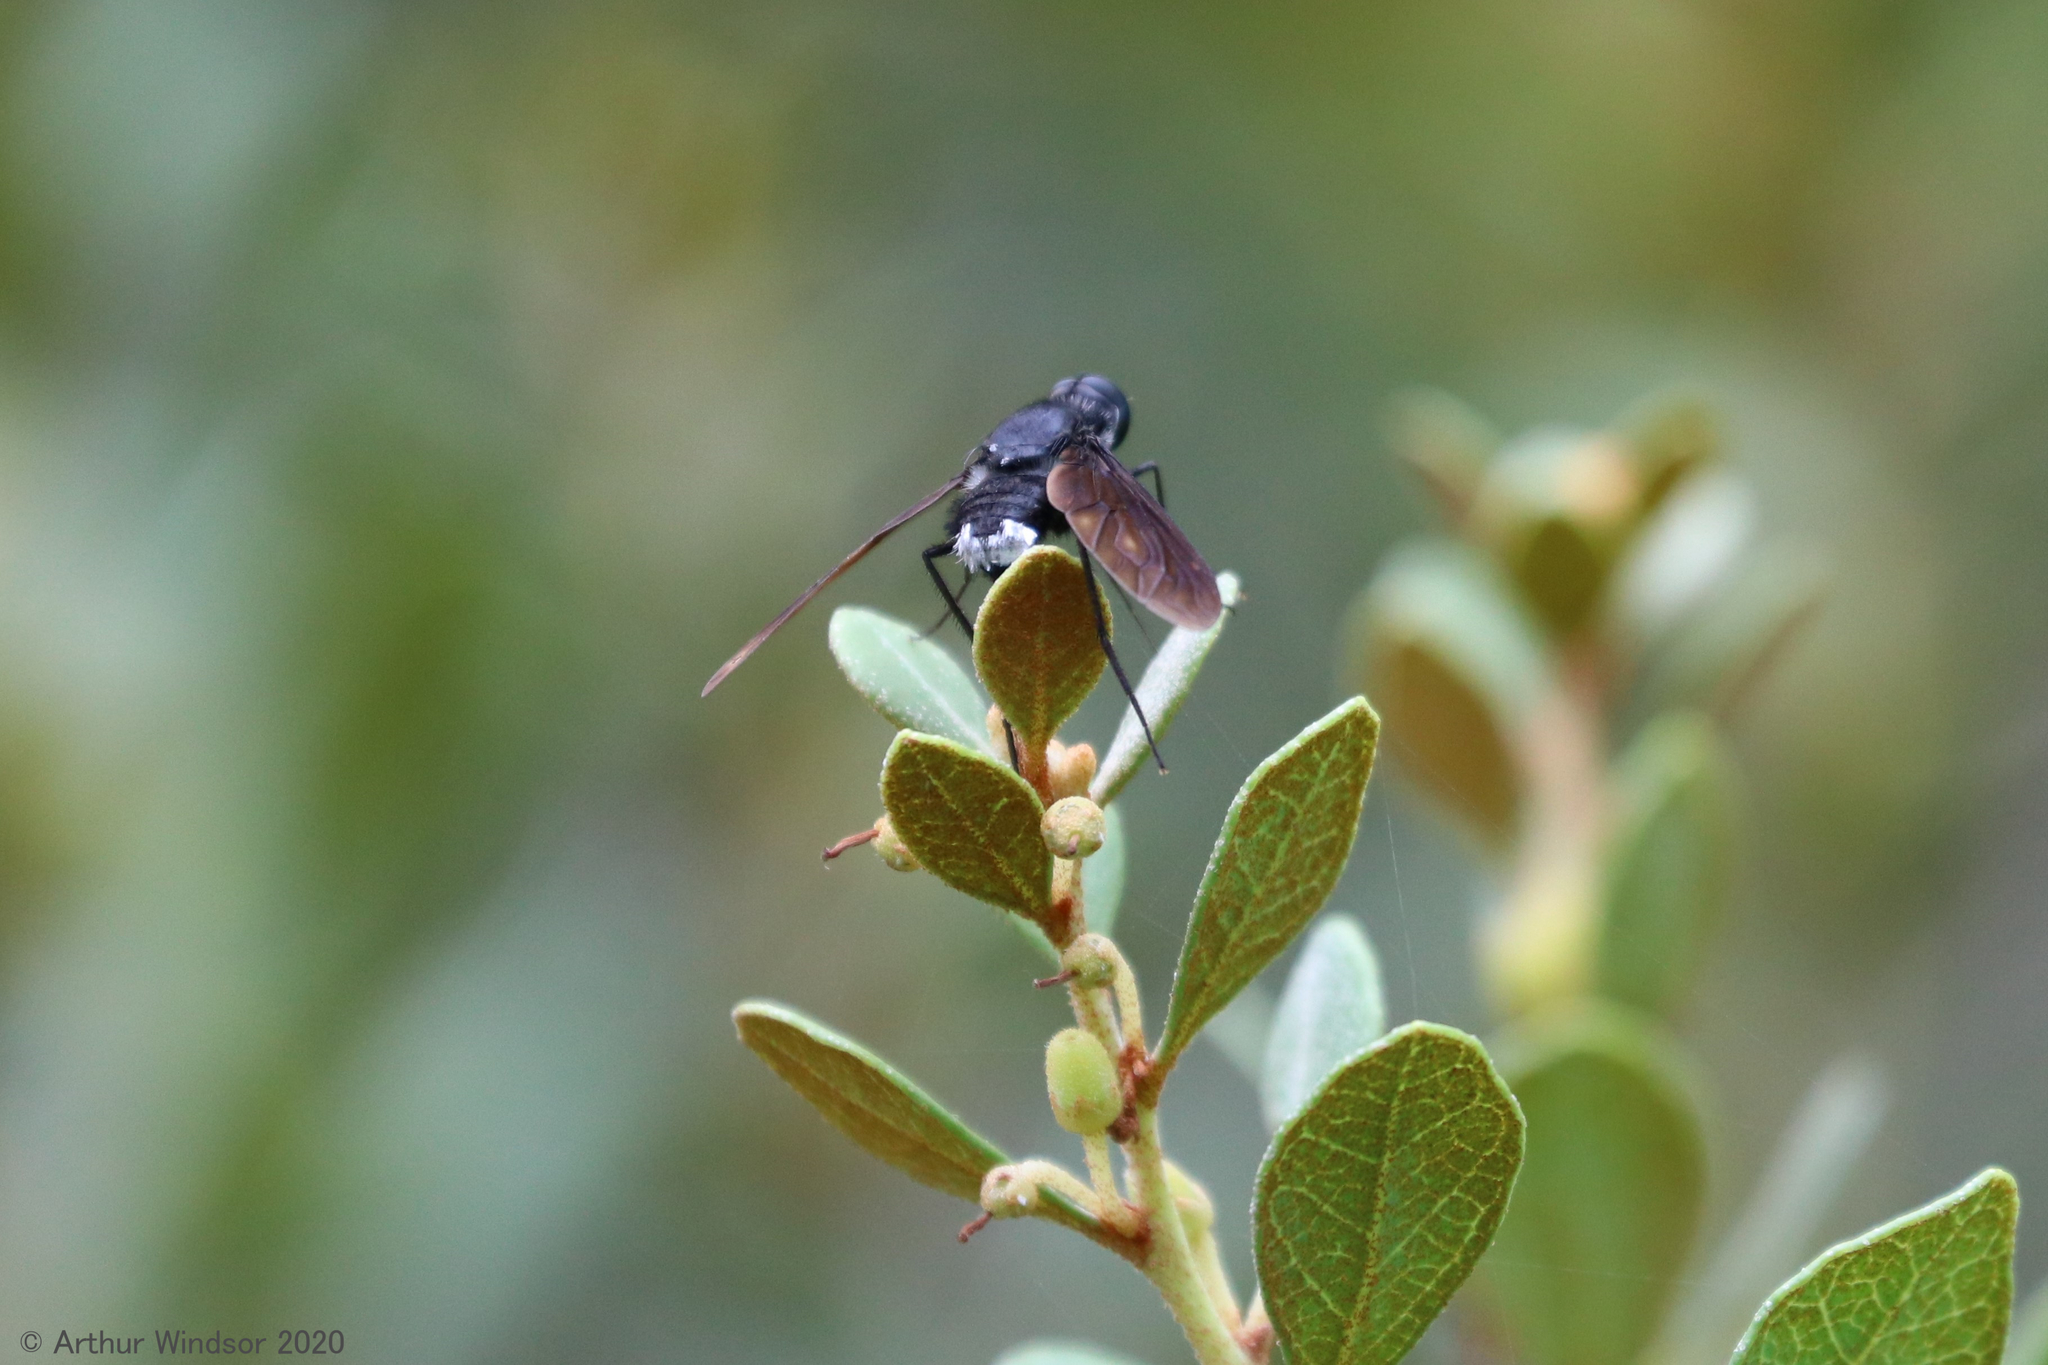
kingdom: Animalia
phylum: Arthropoda
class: Insecta
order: Diptera
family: Bombyliidae
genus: Brachyanax
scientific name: Brachyanax aterrimus
